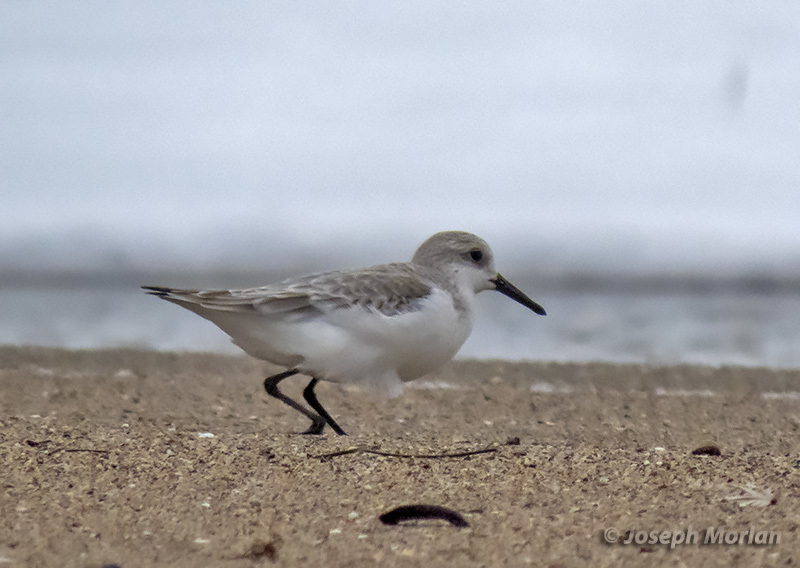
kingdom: Animalia
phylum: Chordata
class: Aves
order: Charadriiformes
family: Scolopacidae
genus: Calidris
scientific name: Calidris alba
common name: Sanderling
